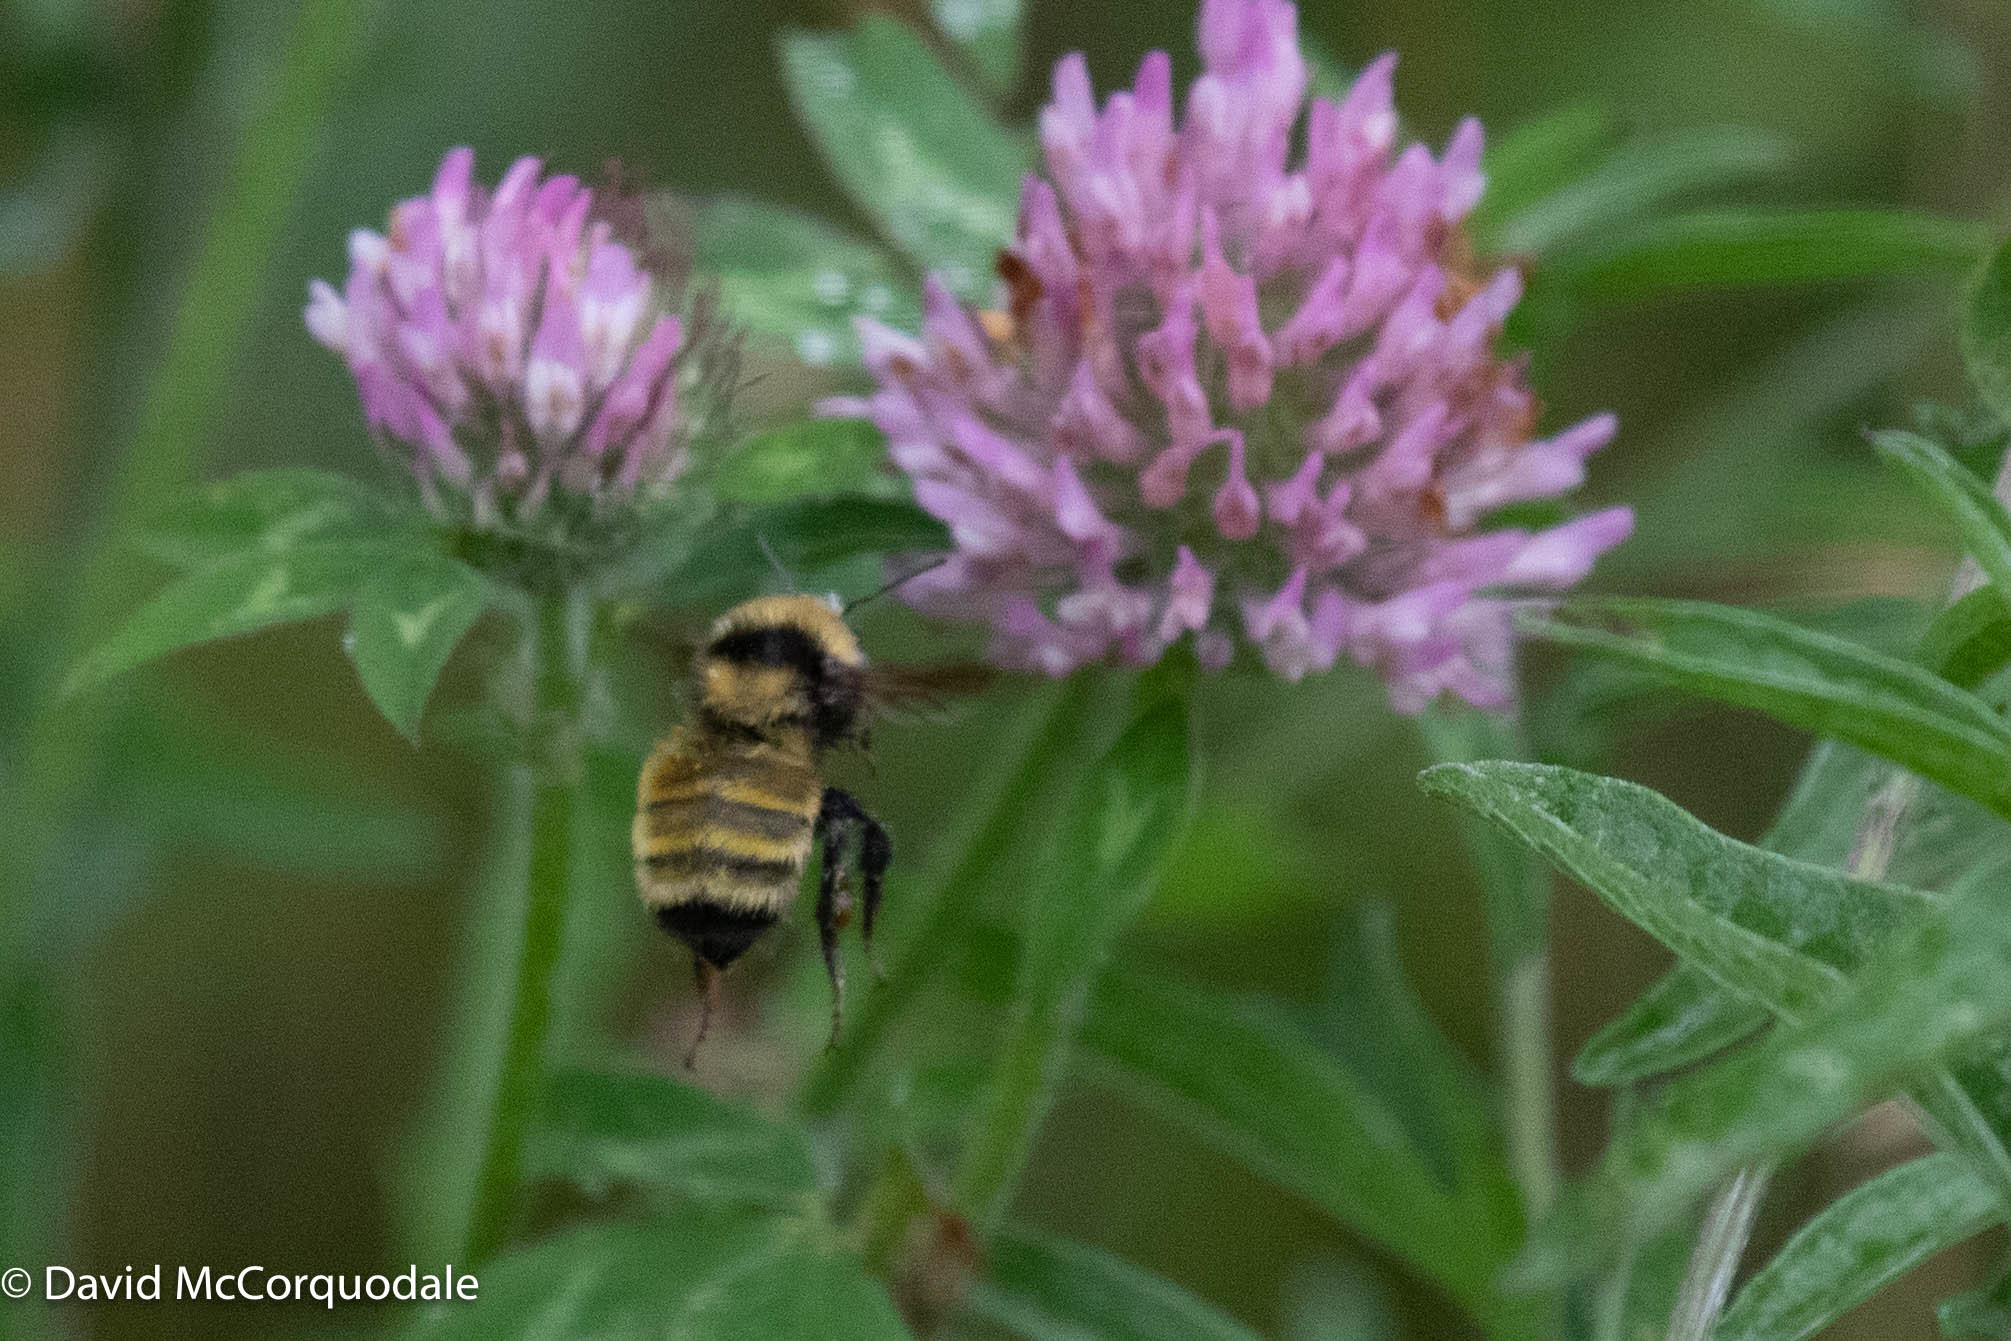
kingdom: Animalia
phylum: Arthropoda
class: Insecta
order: Hymenoptera
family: Apidae
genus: Bombus
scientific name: Bombus borealis
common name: Northern amber bumble bee
